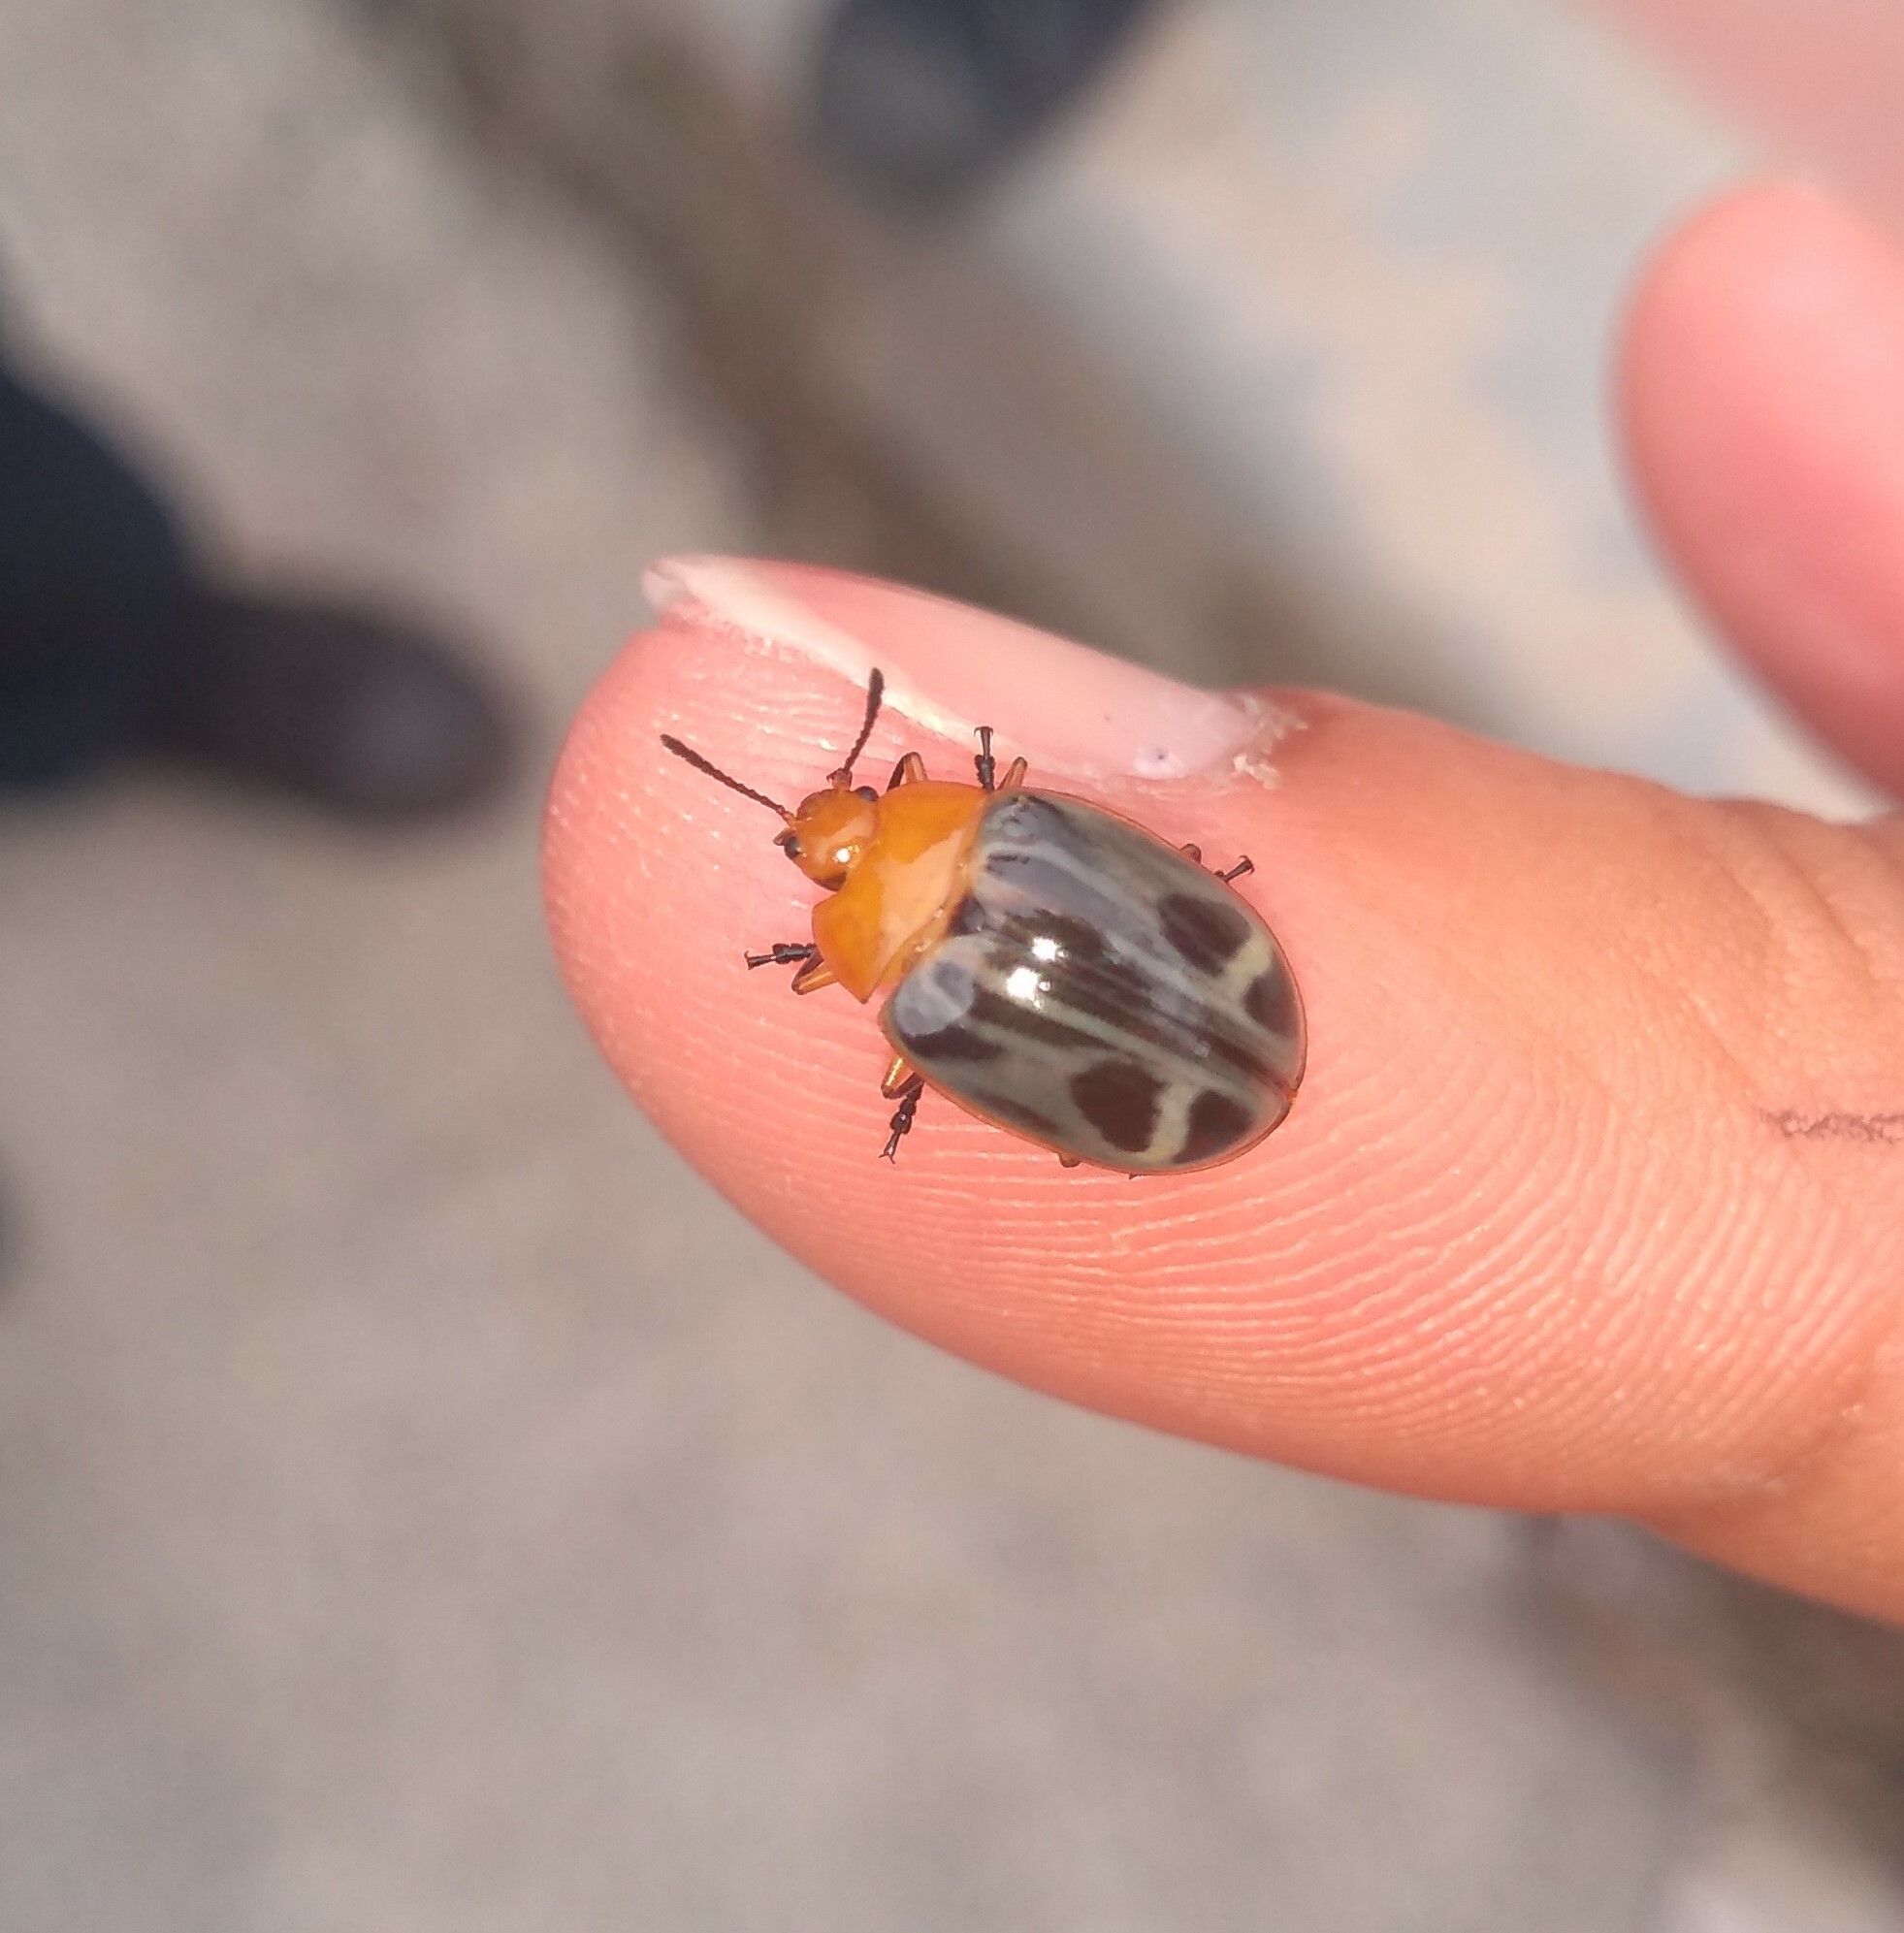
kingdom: Animalia
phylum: Arthropoda
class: Insecta
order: Coleoptera
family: Erotylidae
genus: Iphiclus
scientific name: Iphiclus
